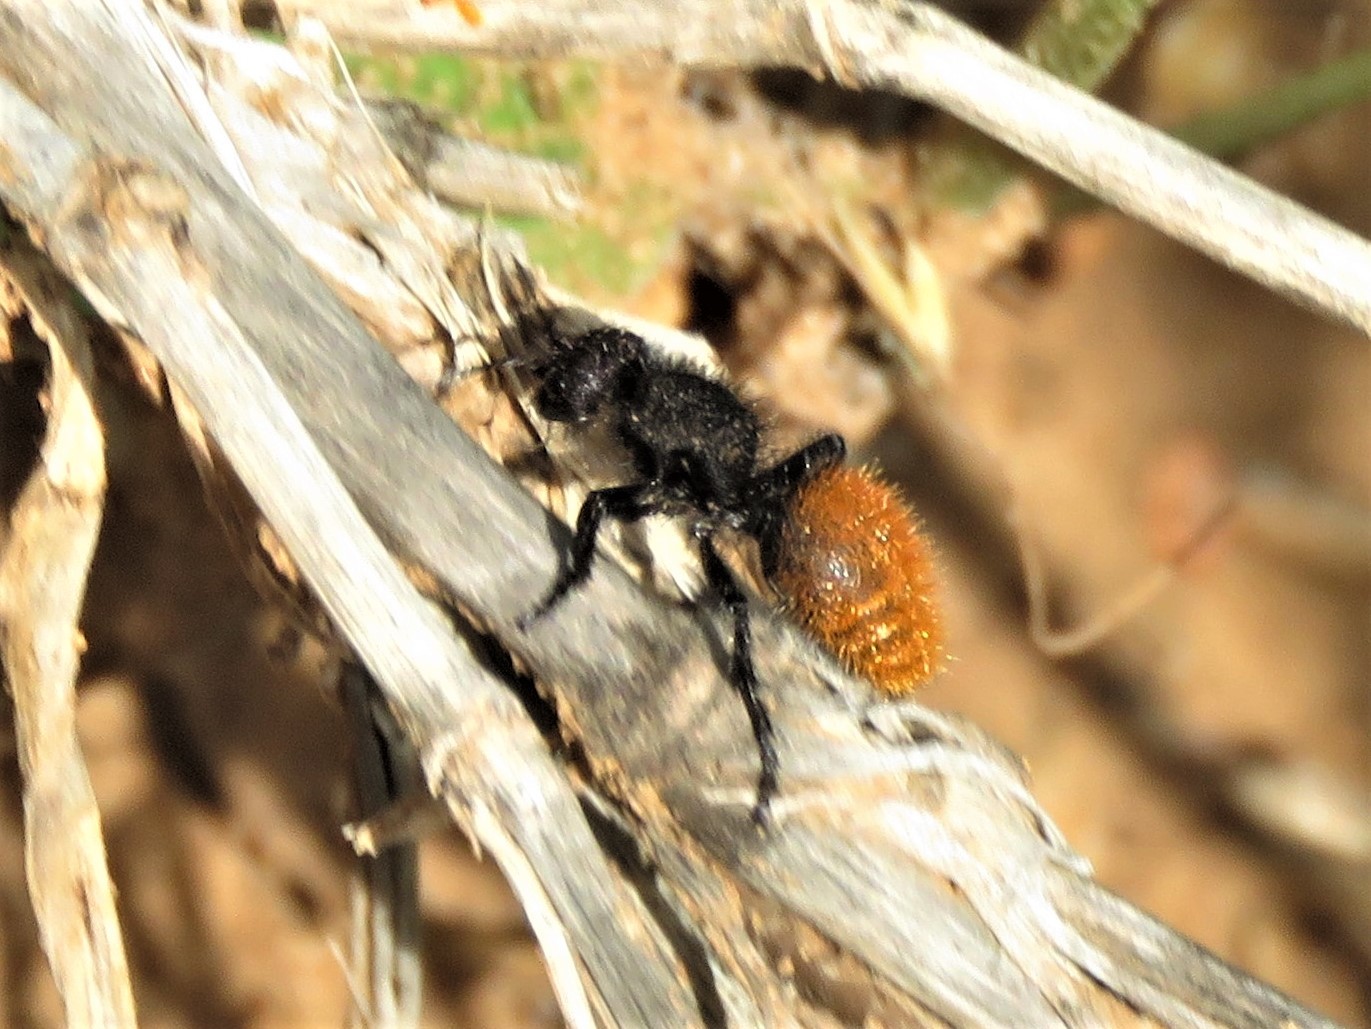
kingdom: Animalia
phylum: Arthropoda
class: Insecta
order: Hymenoptera
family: Mutillidae
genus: Dasymutilla
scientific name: Dasymutilla gorgon
